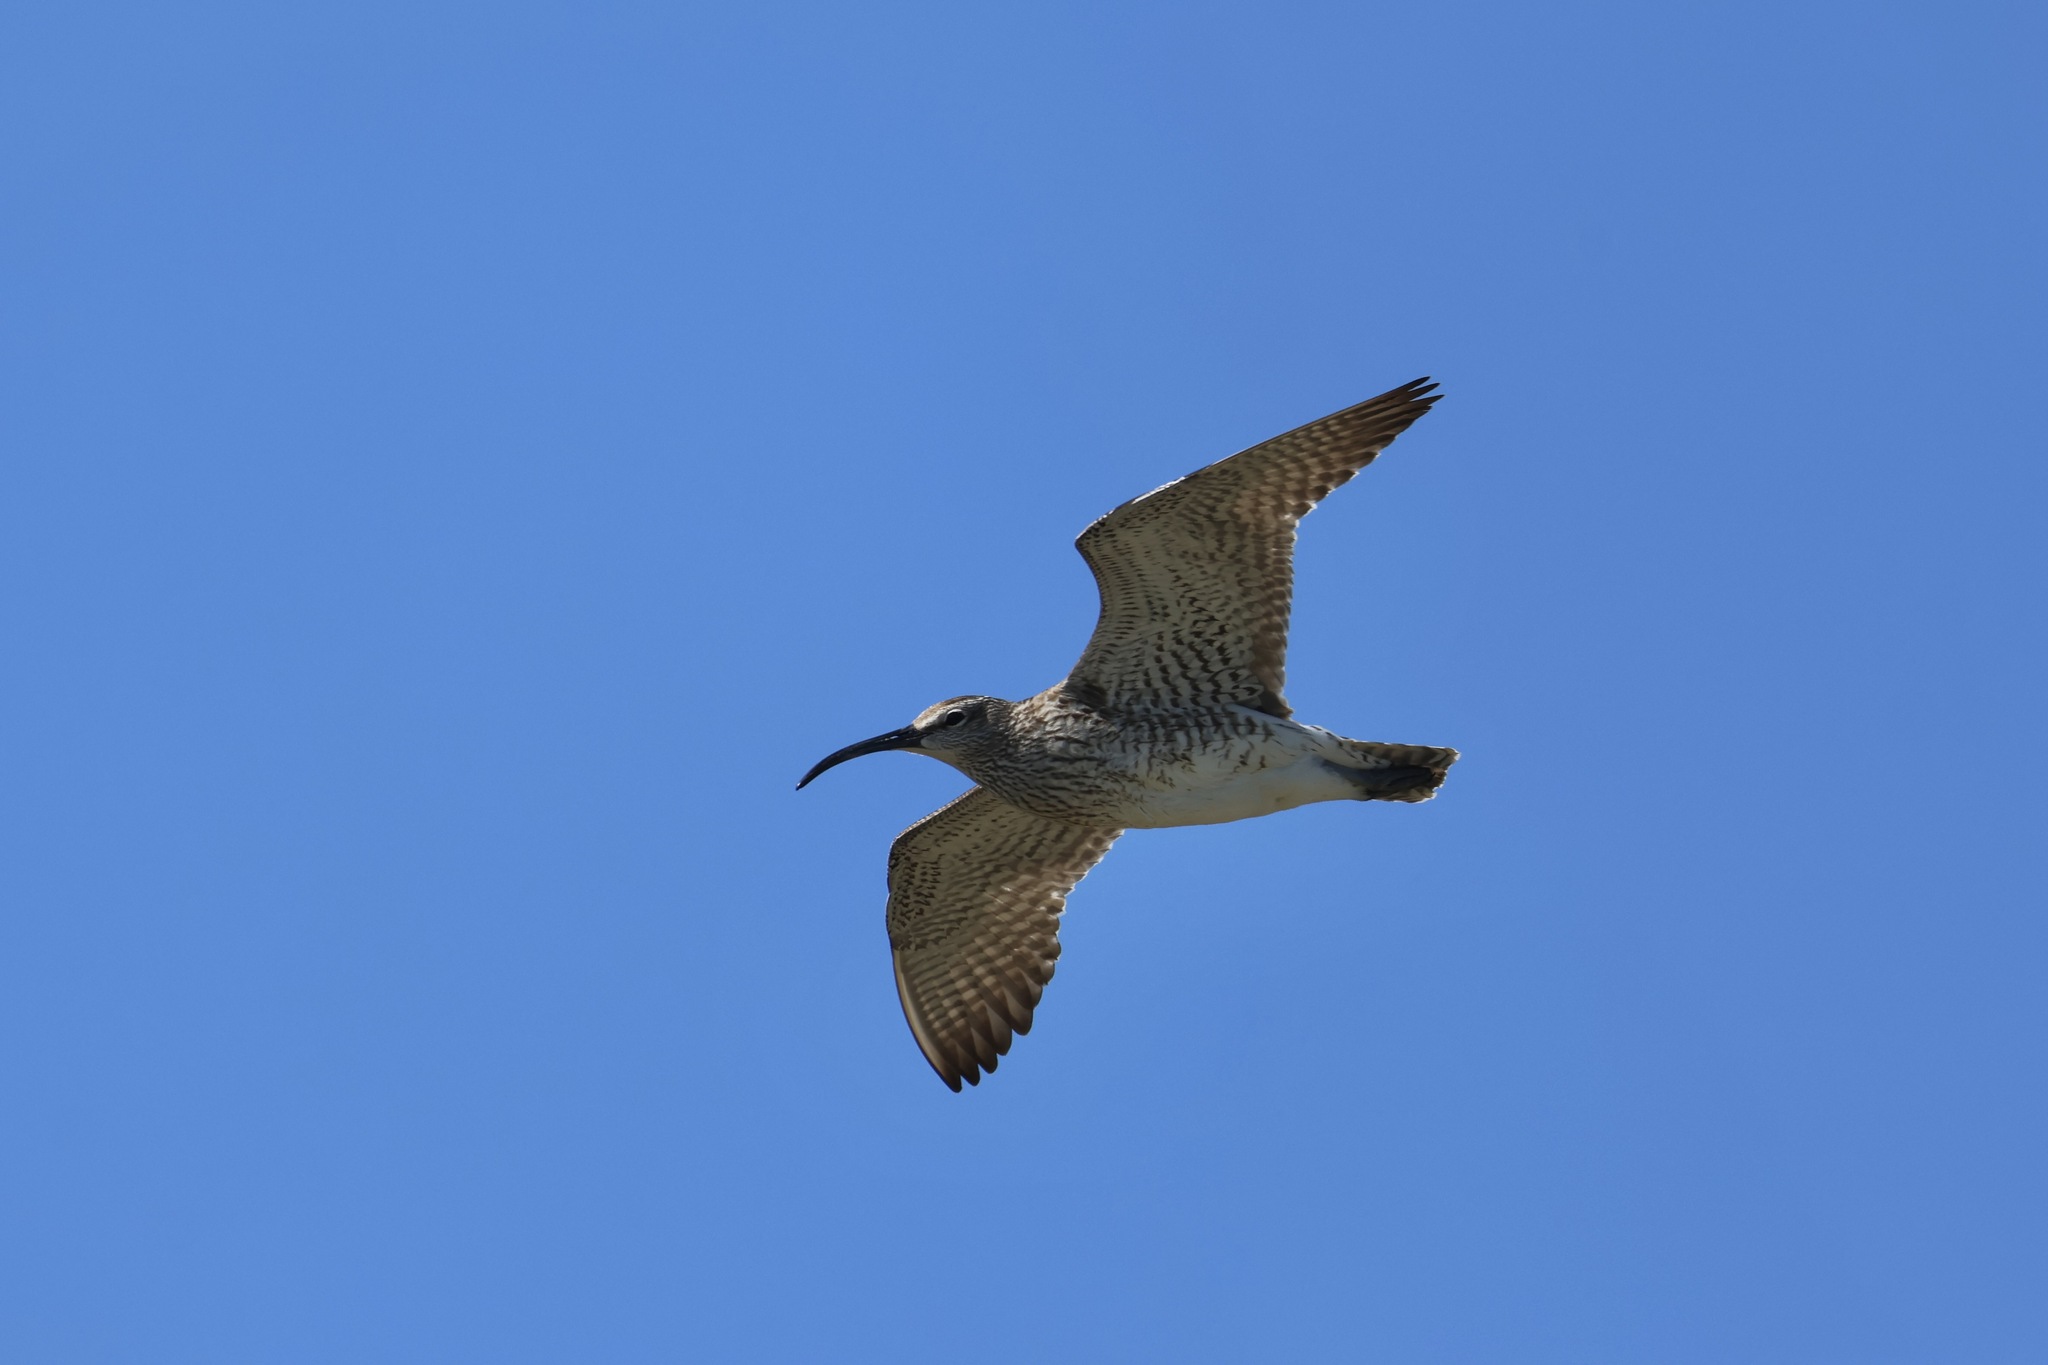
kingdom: Animalia
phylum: Chordata
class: Aves
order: Charadriiformes
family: Scolopacidae
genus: Numenius
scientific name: Numenius phaeopus
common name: Whimbrel
